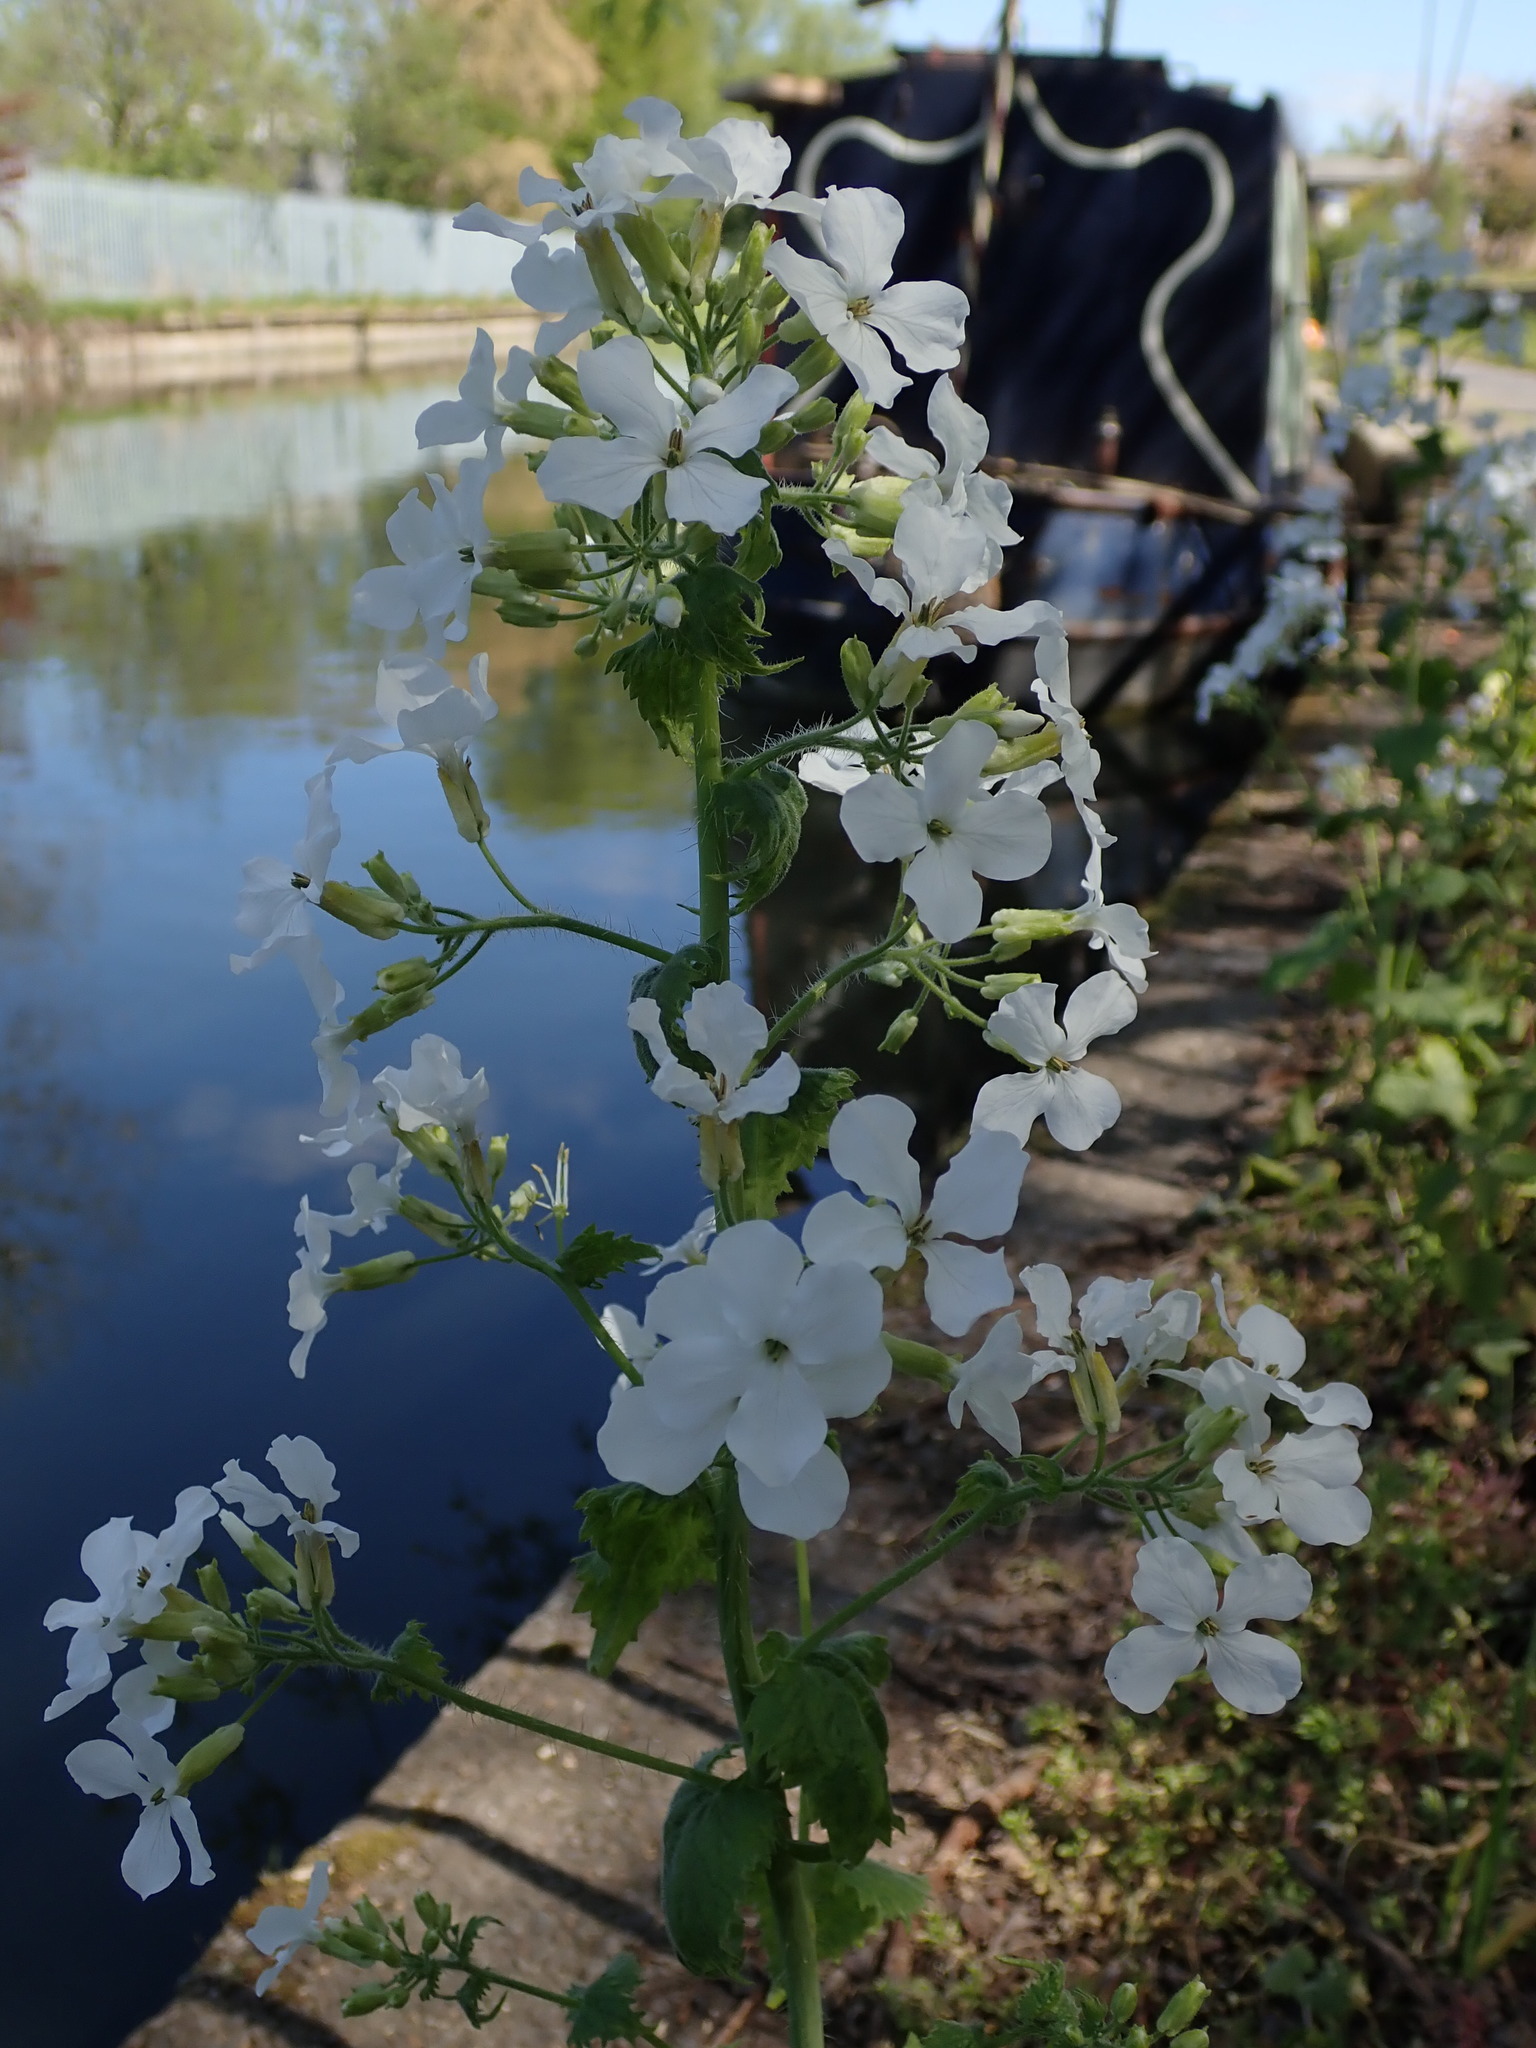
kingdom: Plantae
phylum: Tracheophyta
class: Magnoliopsida
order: Brassicales
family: Brassicaceae
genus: Lunaria
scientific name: Lunaria annua
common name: Honesty
